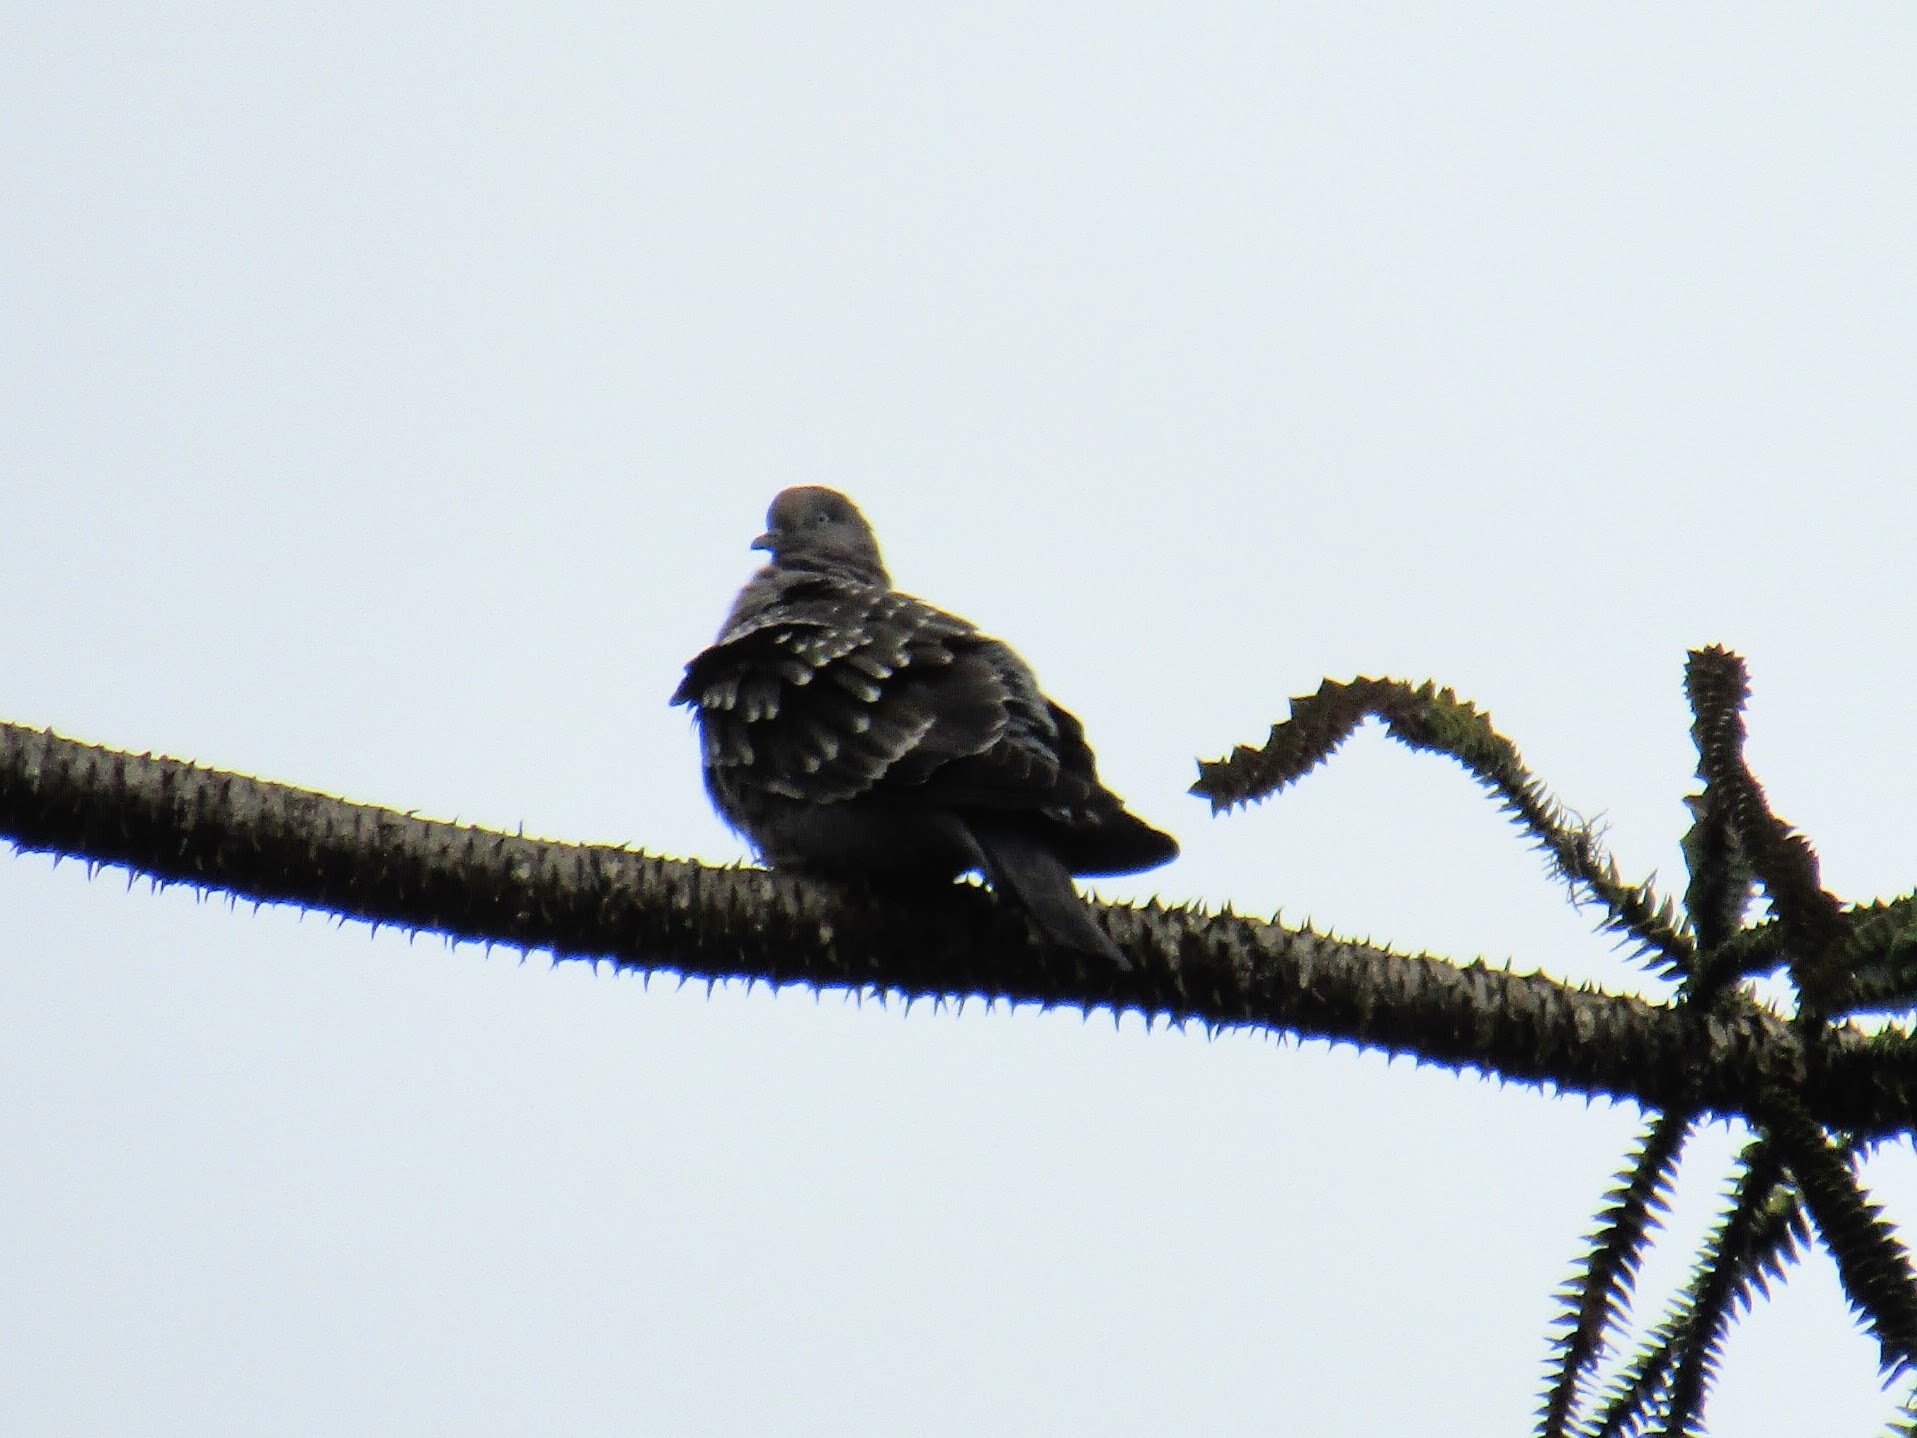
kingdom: Animalia
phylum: Chordata
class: Aves
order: Columbiformes
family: Columbidae
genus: Patagioenas
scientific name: Patagioenas maculosa
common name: Spot-winged pigeon
